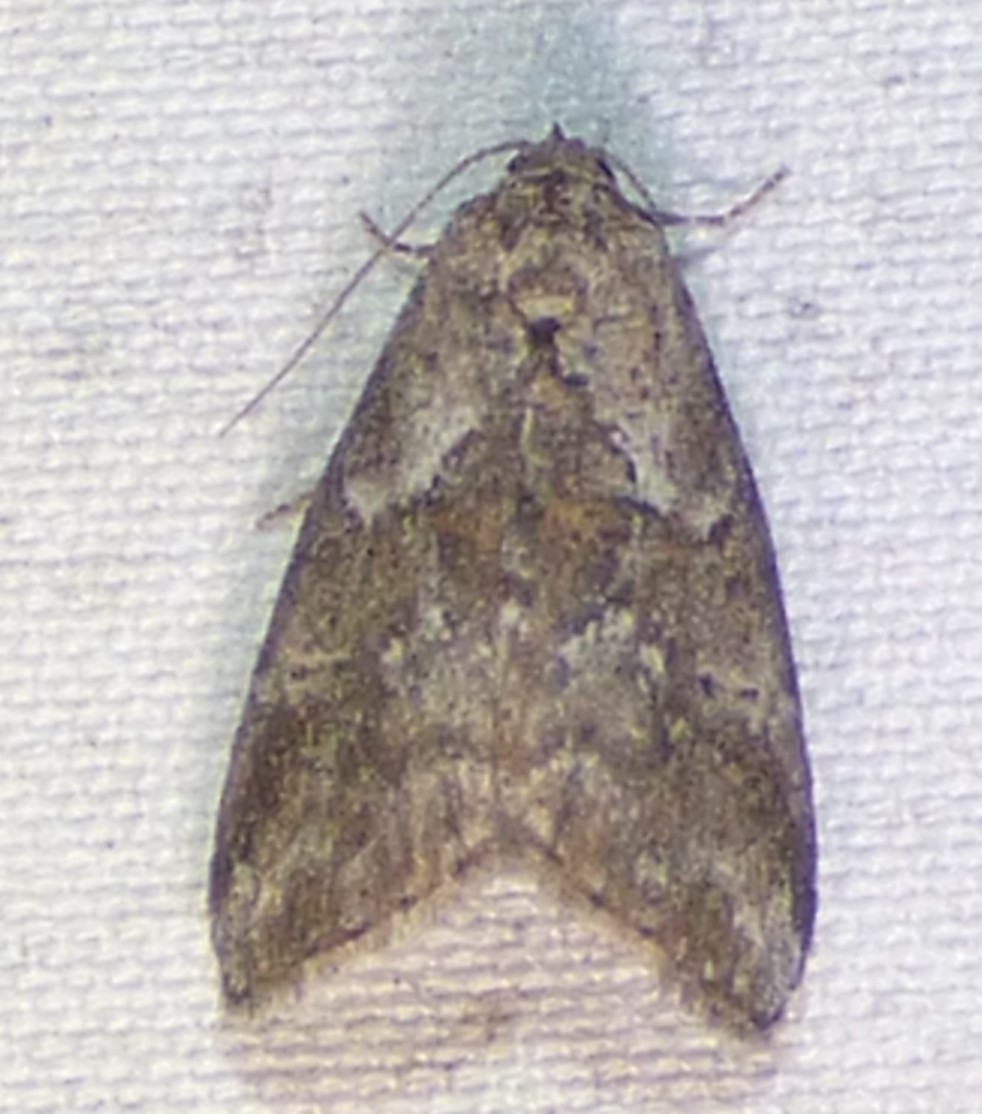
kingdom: Animalia
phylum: Arthropoda
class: Insecta
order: Lepidoptera
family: Erebidae
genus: Hyperstrotia
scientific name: Hyperstrotia nana
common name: White-lined graylet
